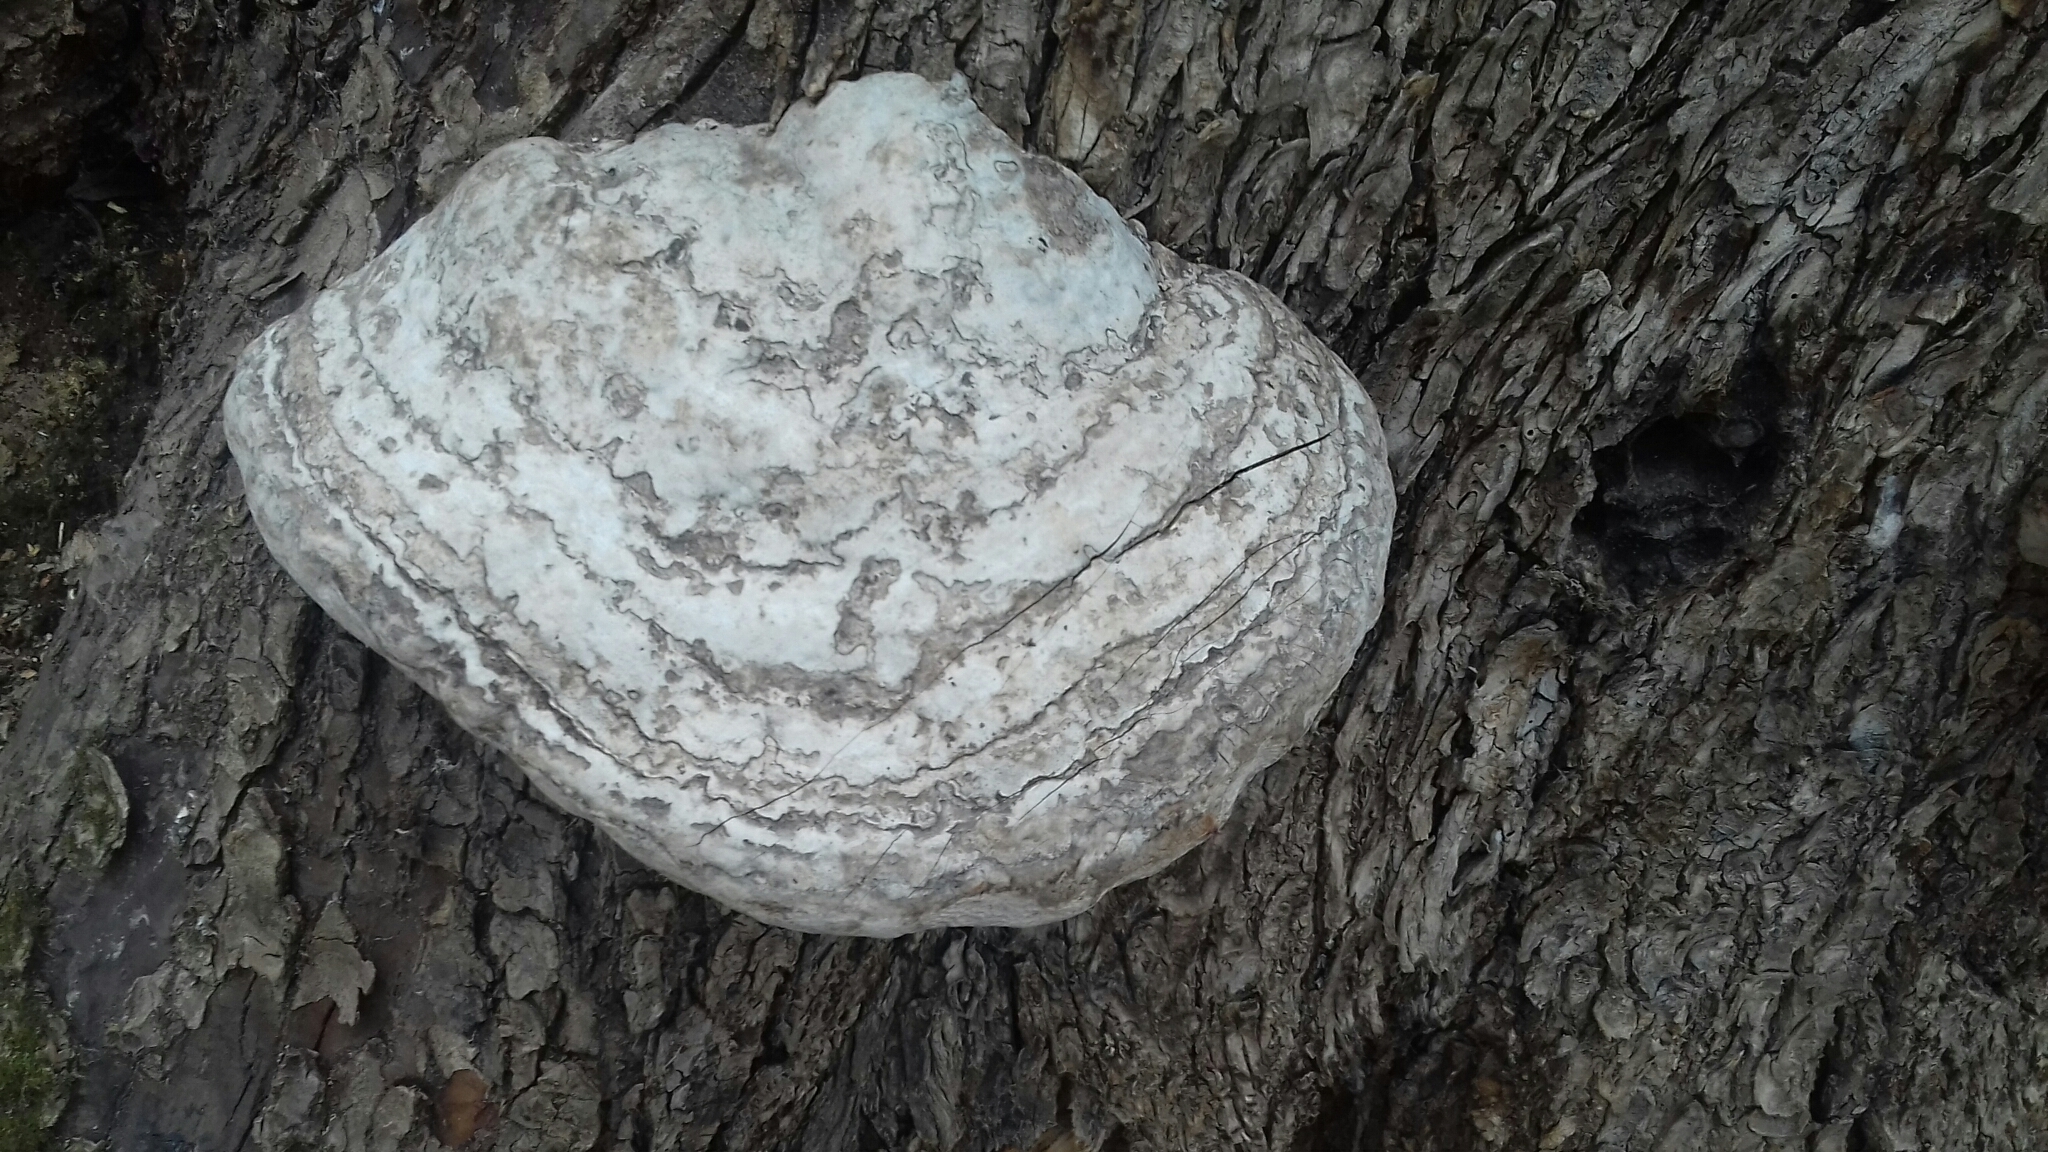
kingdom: Fungi
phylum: Basidiomycota
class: Agaricomycetes
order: Polyporales
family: Polyporaceae
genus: Fomes
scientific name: Fomes fomentarius
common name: Hoof fungus
